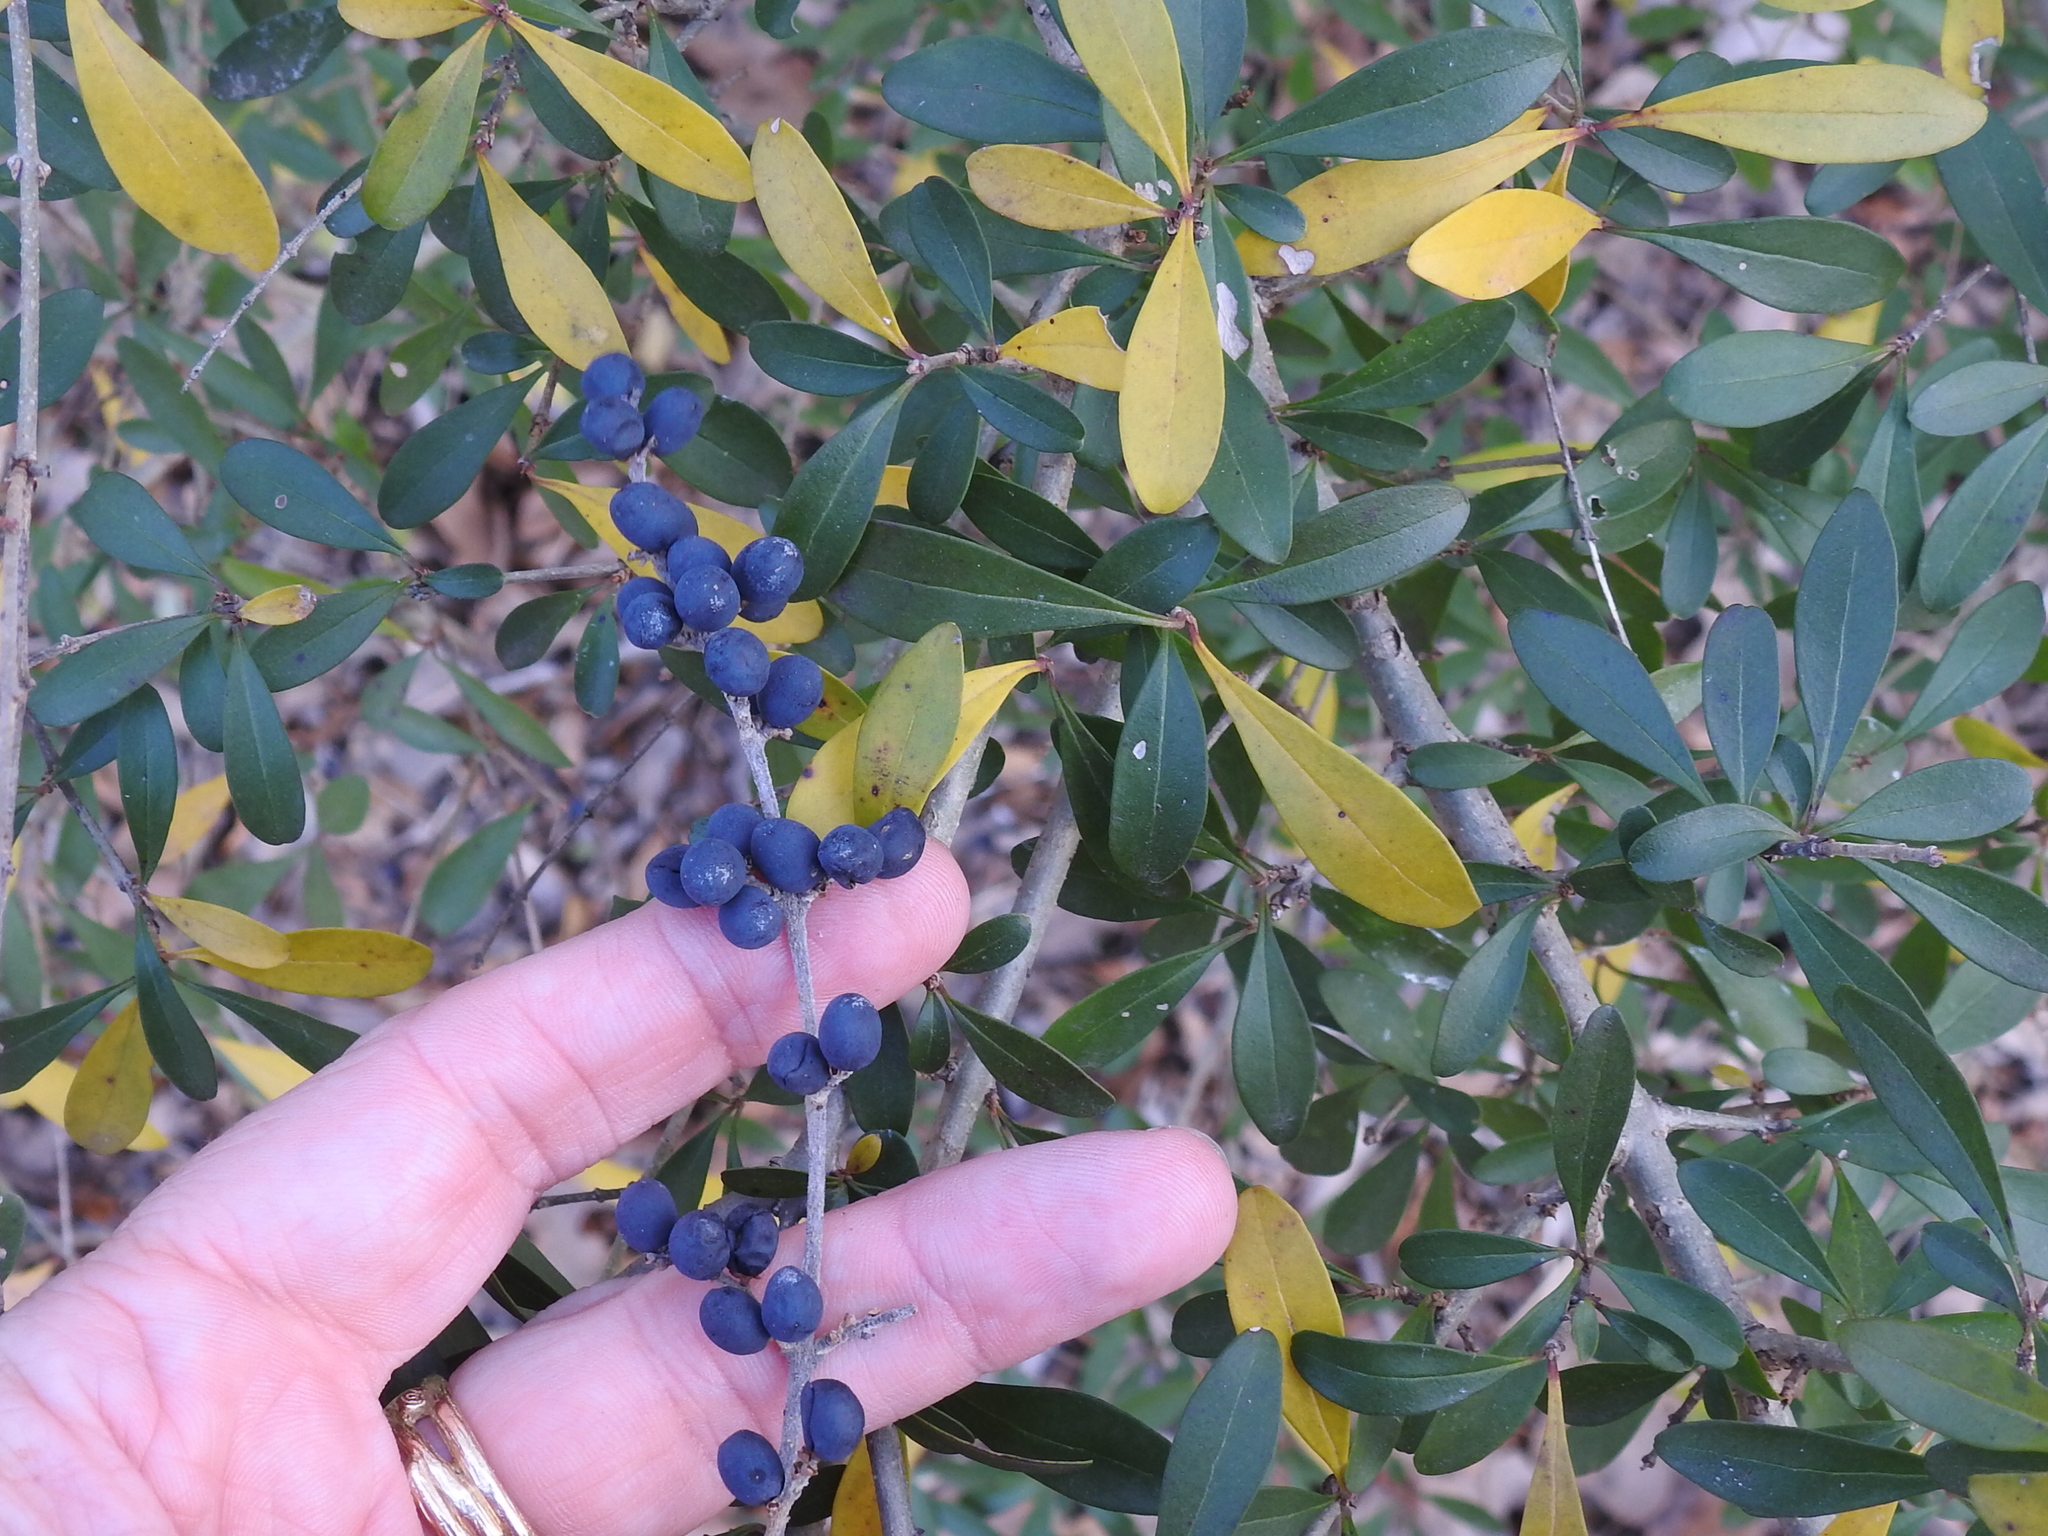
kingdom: Plantae
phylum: Tracheophyta
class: Magnoliopsida
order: Lamiales
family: Oleaceae
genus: Ligustrum
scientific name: Ligustrum quihoui
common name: Waxyleaf privet
